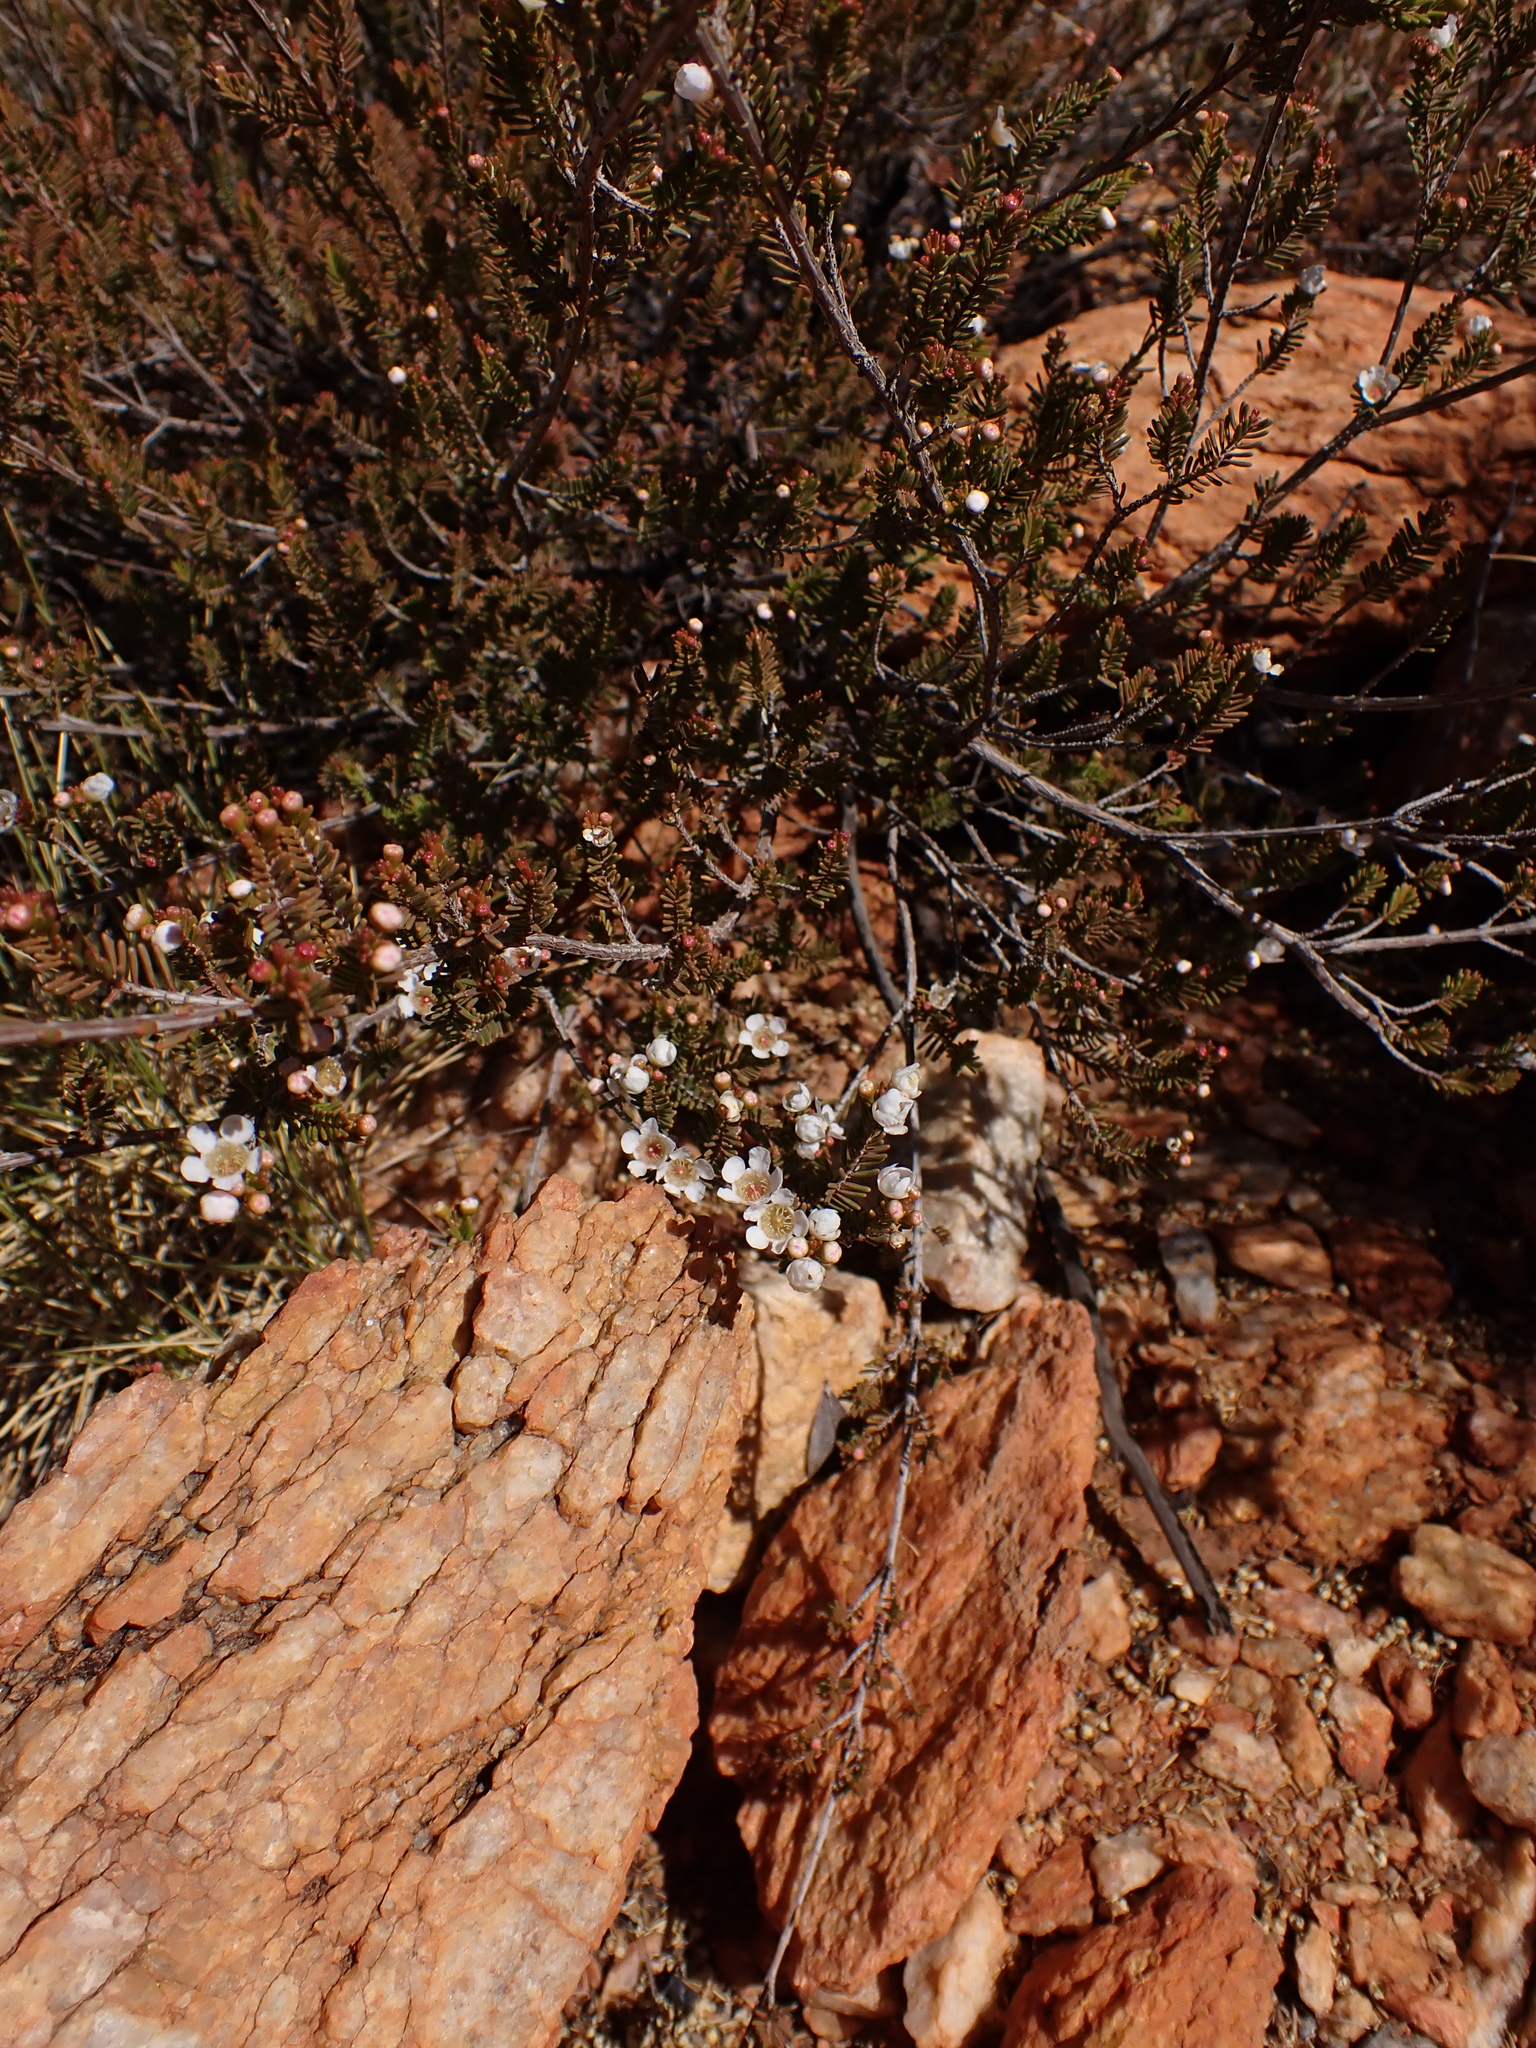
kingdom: Plantae
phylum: Tracheophyta
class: Magnoliopsida
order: Myrtales
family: Myrtaceae
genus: Rinzia
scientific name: Rinzia polystemonea
